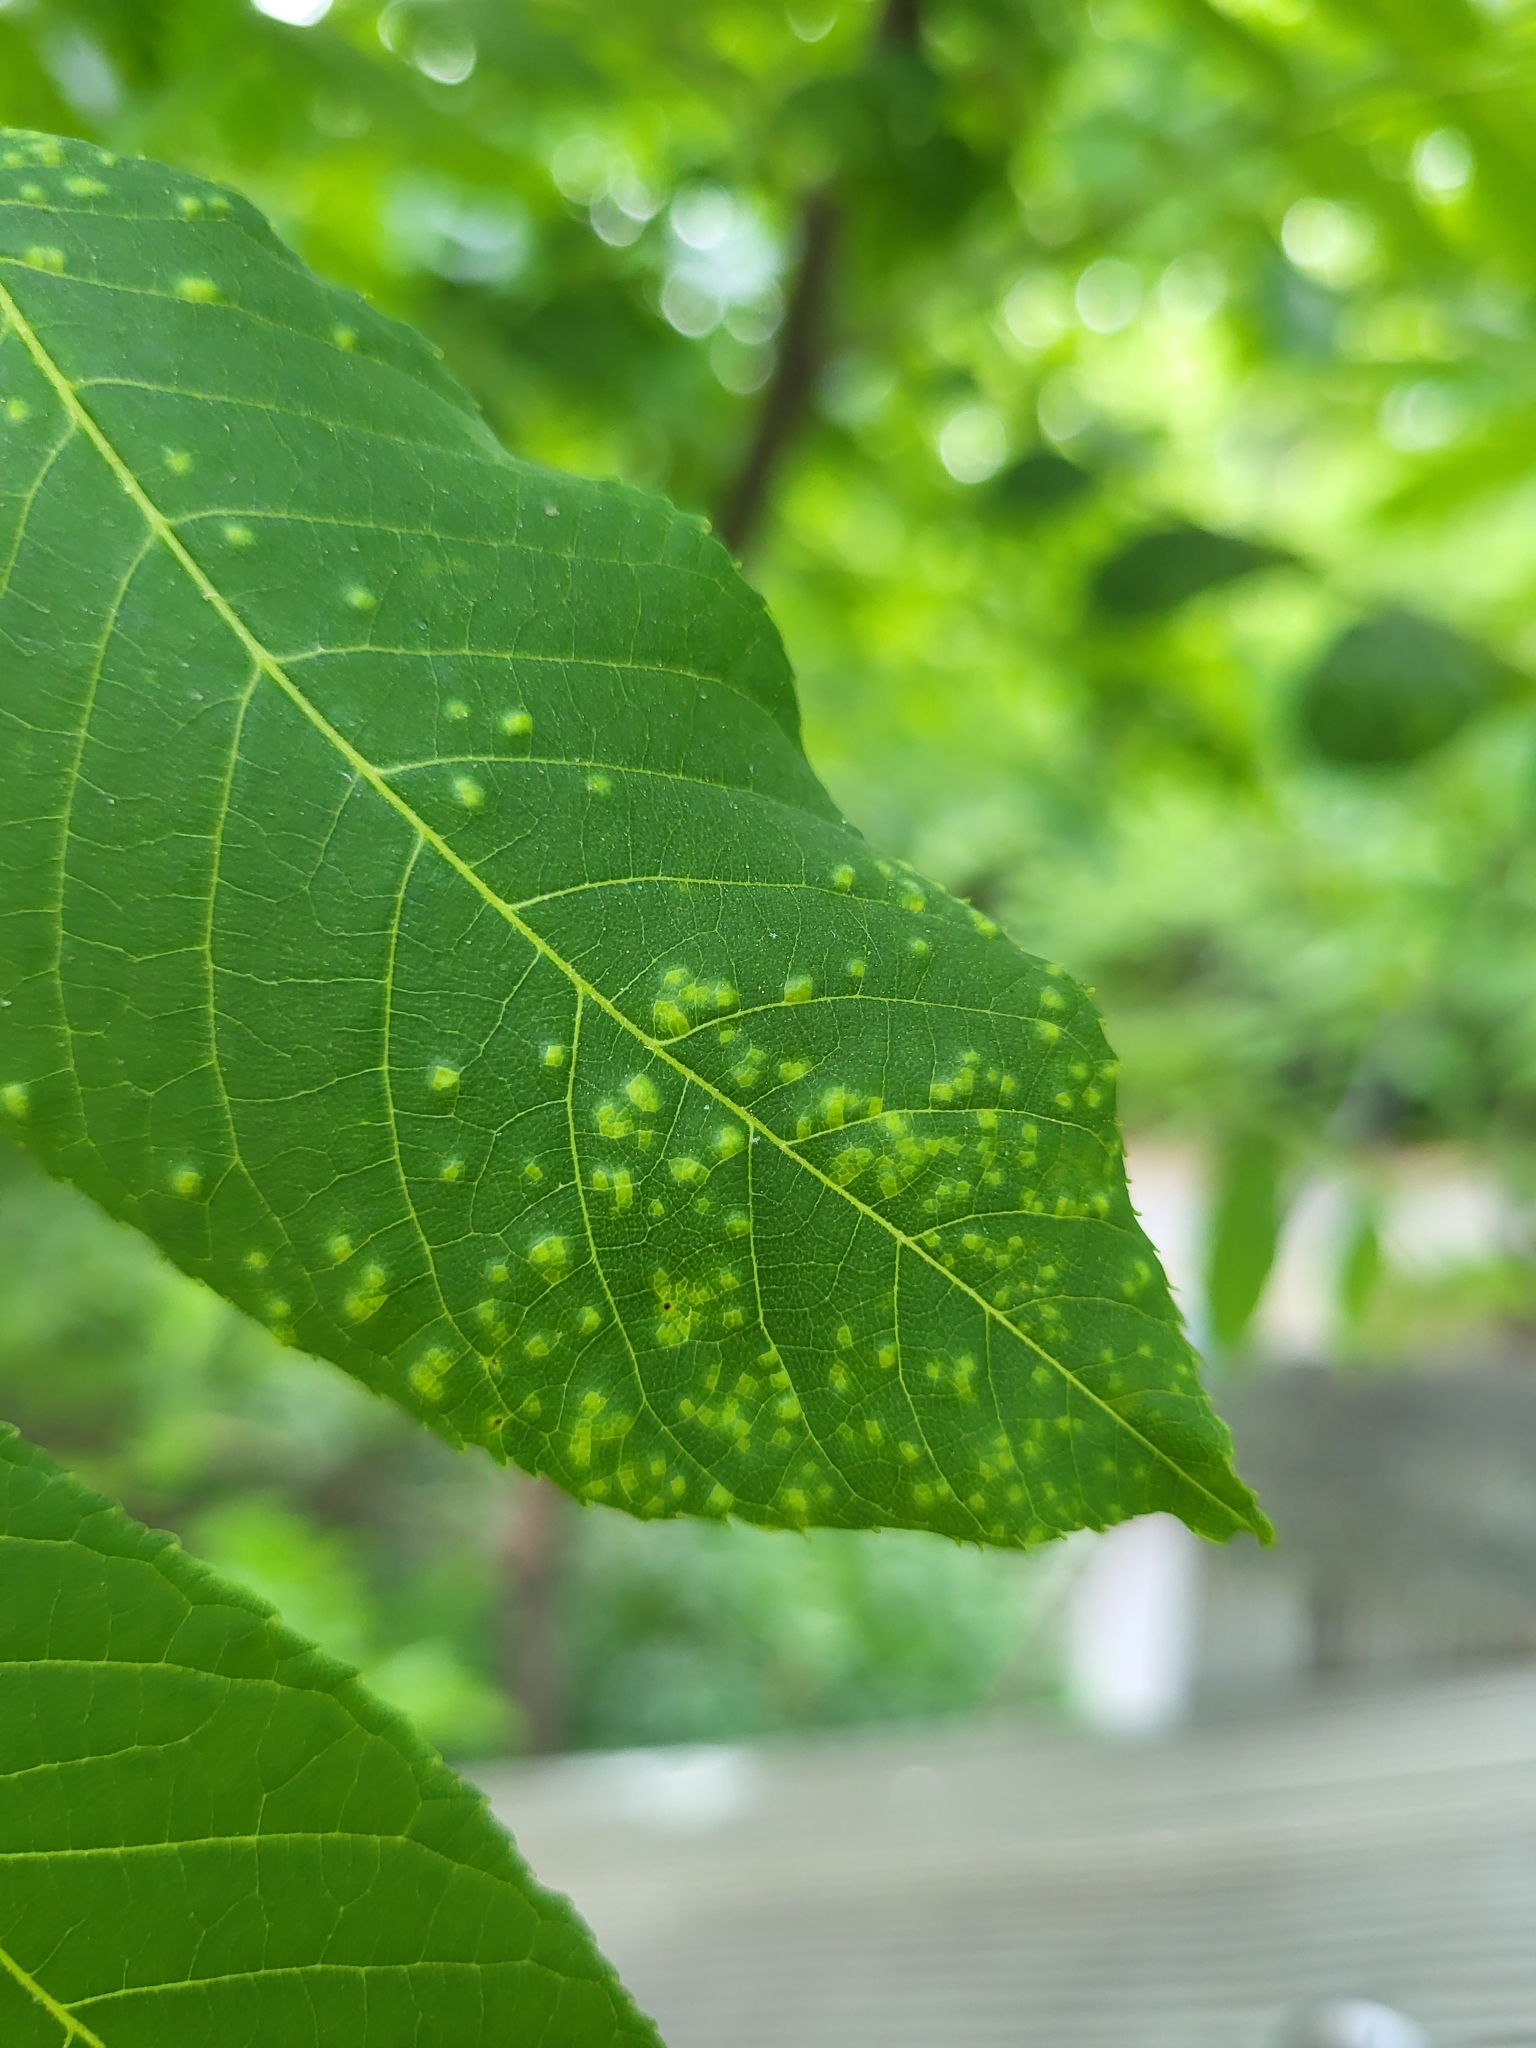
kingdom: Fungi
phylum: Basidiomycota
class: Exobasidiomycetes
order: Microstromatales
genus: Pseudomicrostroma
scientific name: Pseudomicrostroma juglandis
